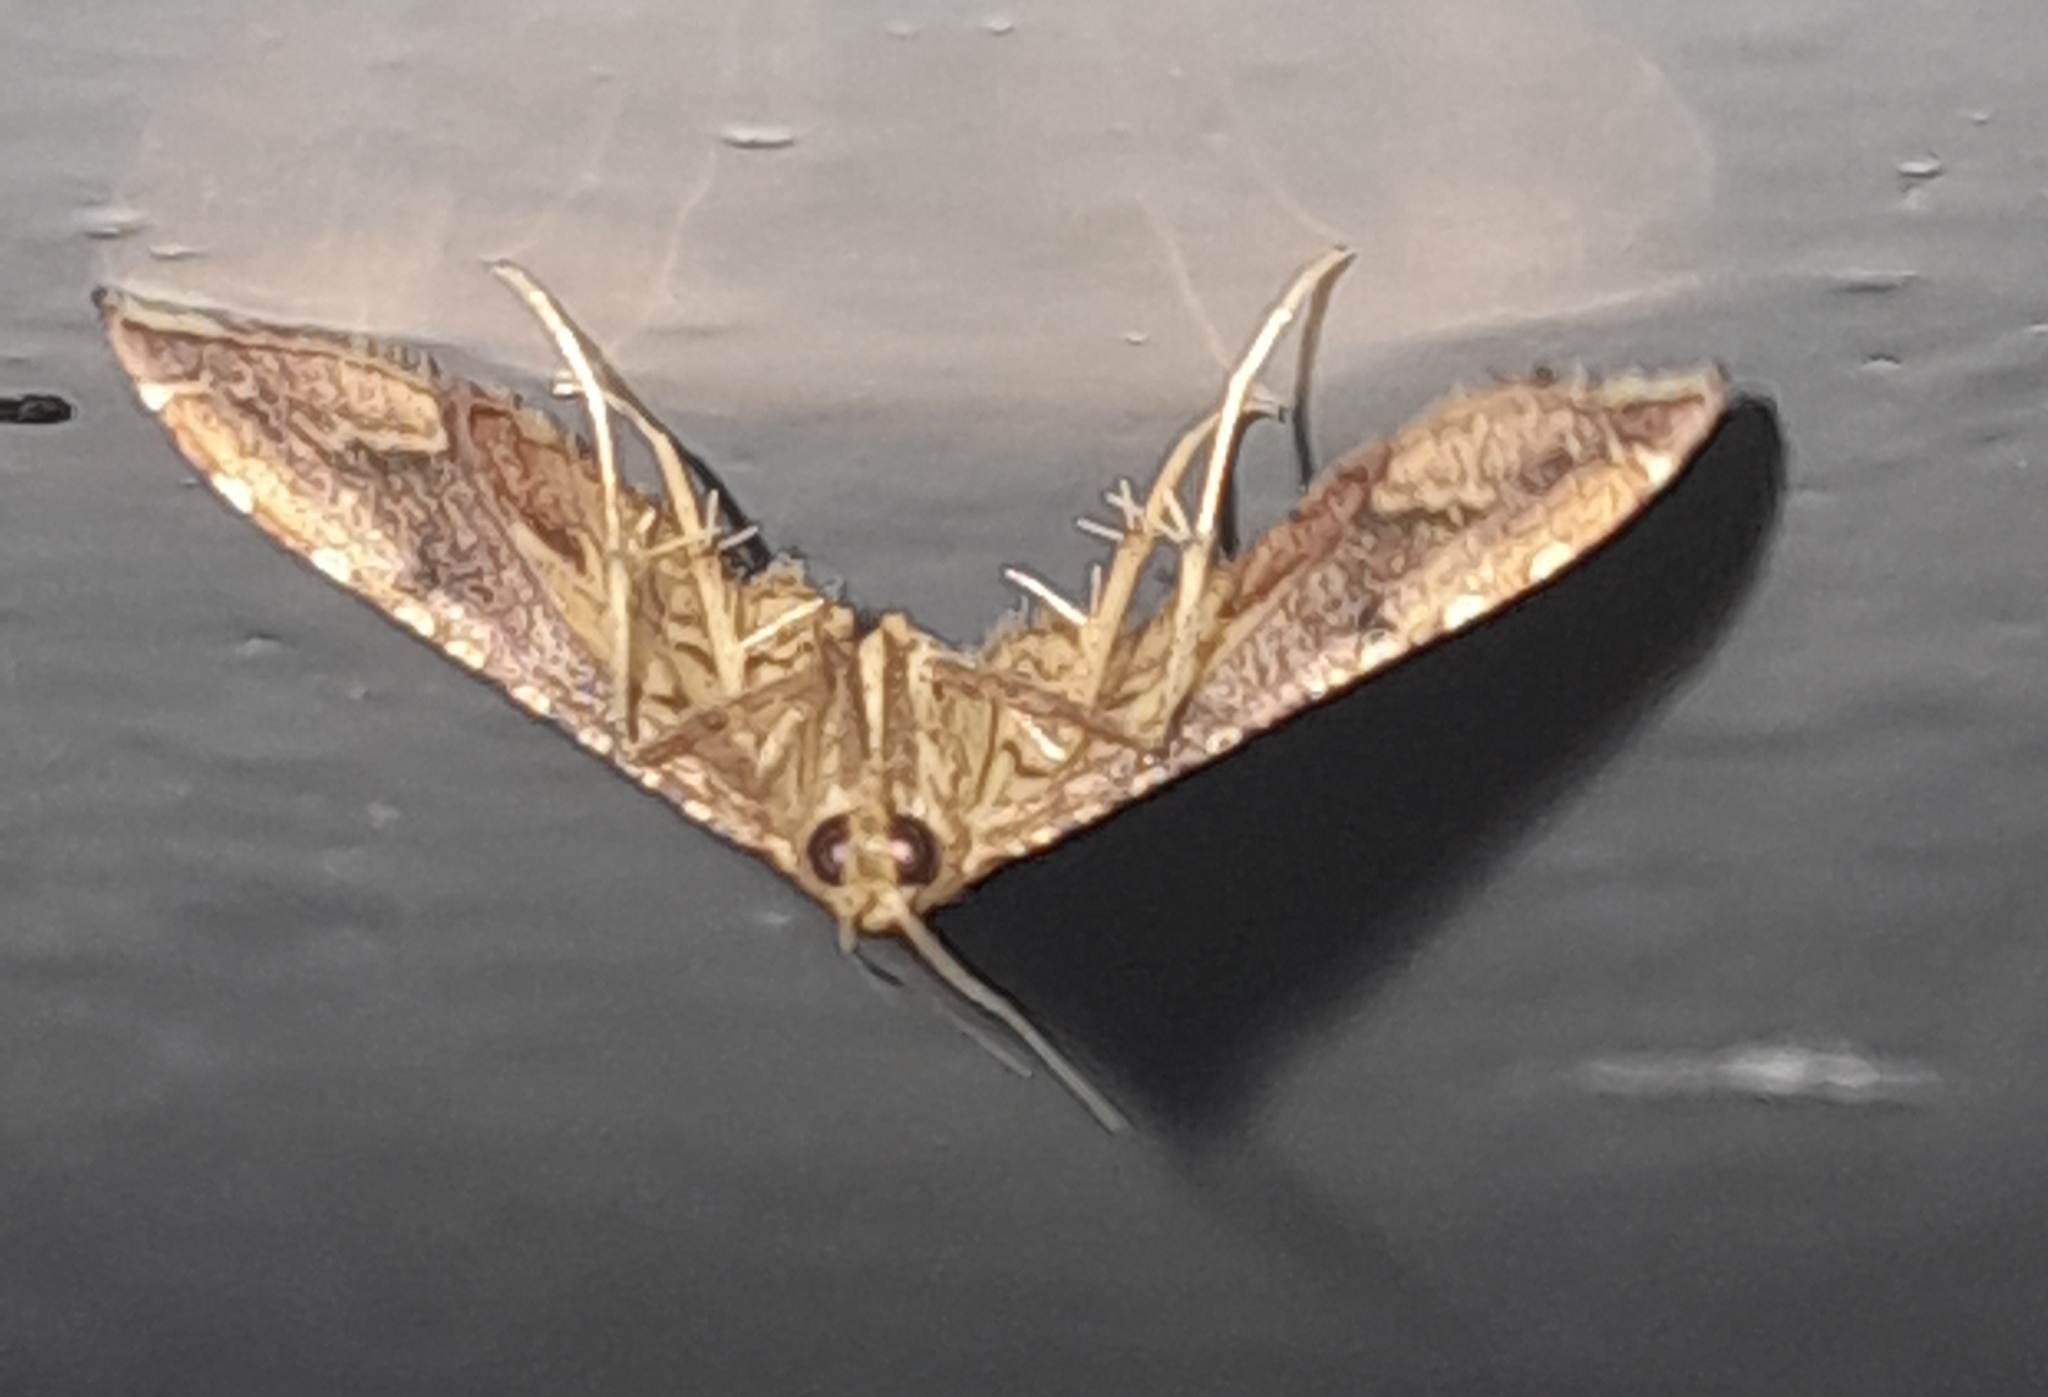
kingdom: Animalia
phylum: Arthropoda
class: Insecta
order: Lepidoptera
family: Pyralidae
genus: Endotricha
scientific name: Endotricha flammealis
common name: Rosy tabby
